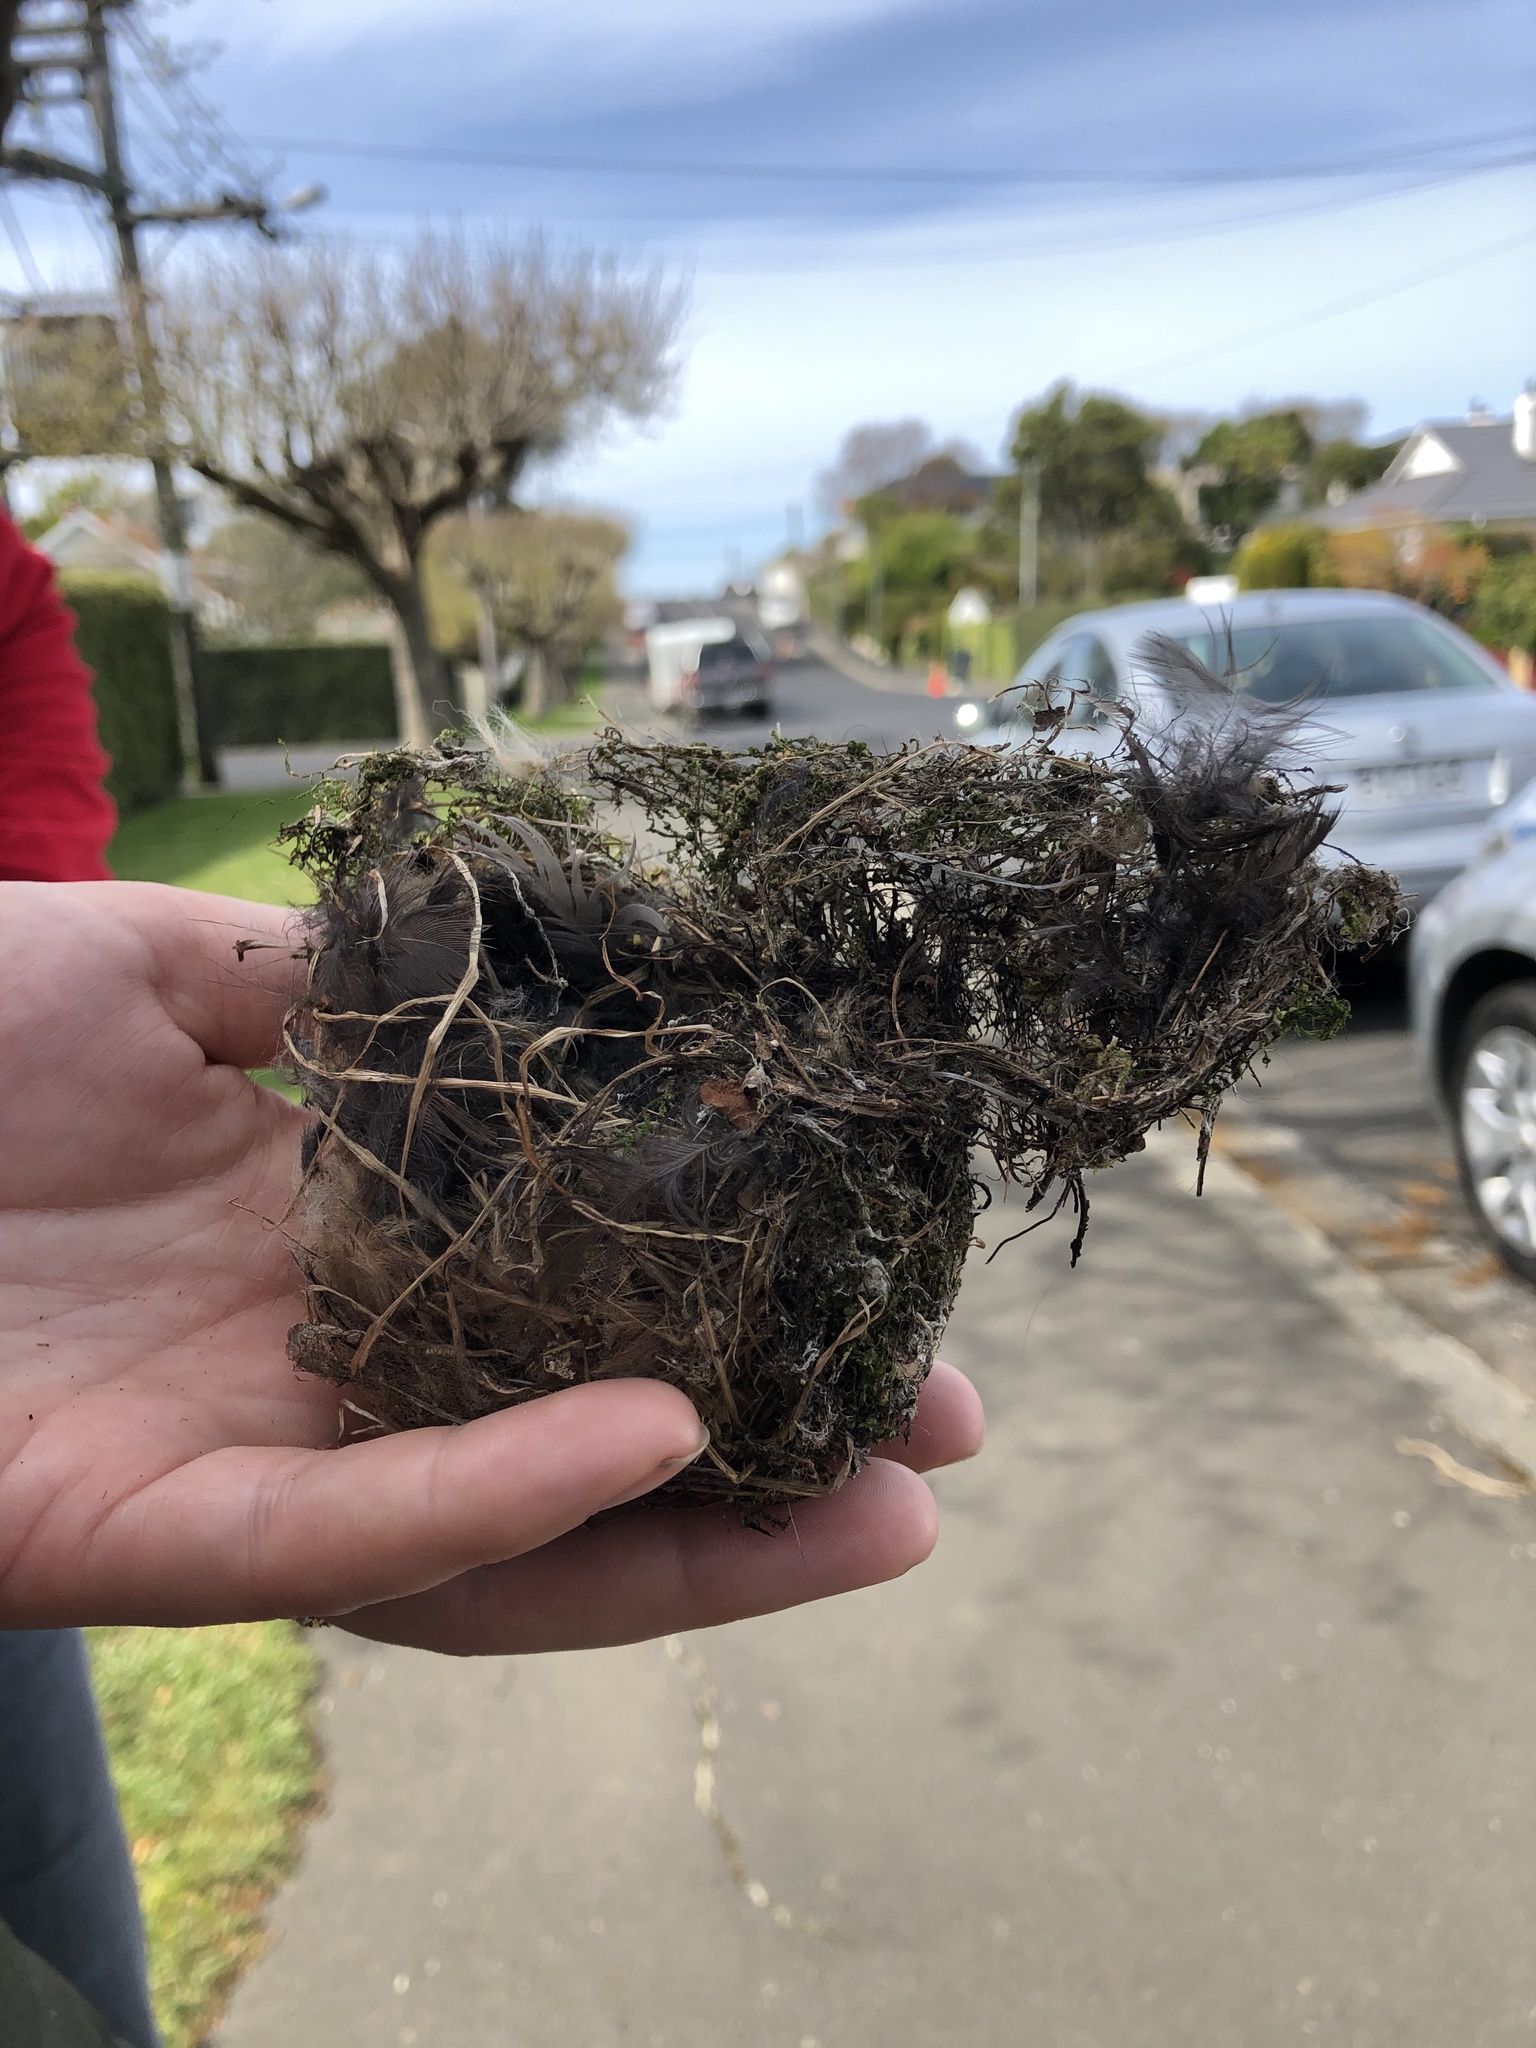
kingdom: Animalia
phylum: Chordata
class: Aves
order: Passeriformes
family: Zosteropidae
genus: Zosterops
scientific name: Zosterops lateralis
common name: Silvereye
